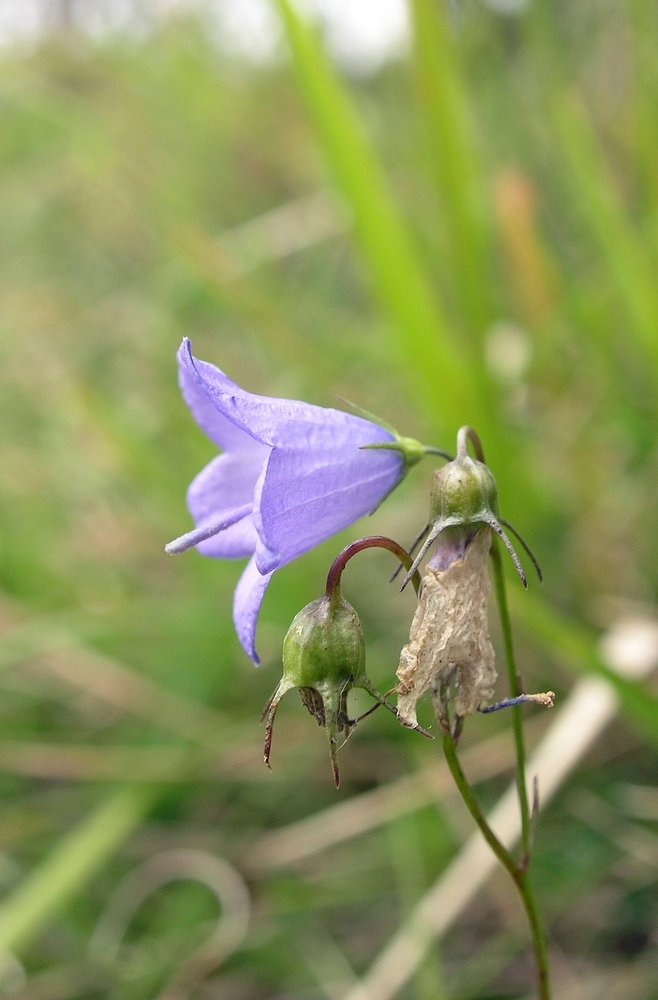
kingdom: Plantae
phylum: Tracheophyta
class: Magnoliopsida
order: Asterales
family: Campanulaceae
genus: Campanula
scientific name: Campanula rotundifolia
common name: Harebell
